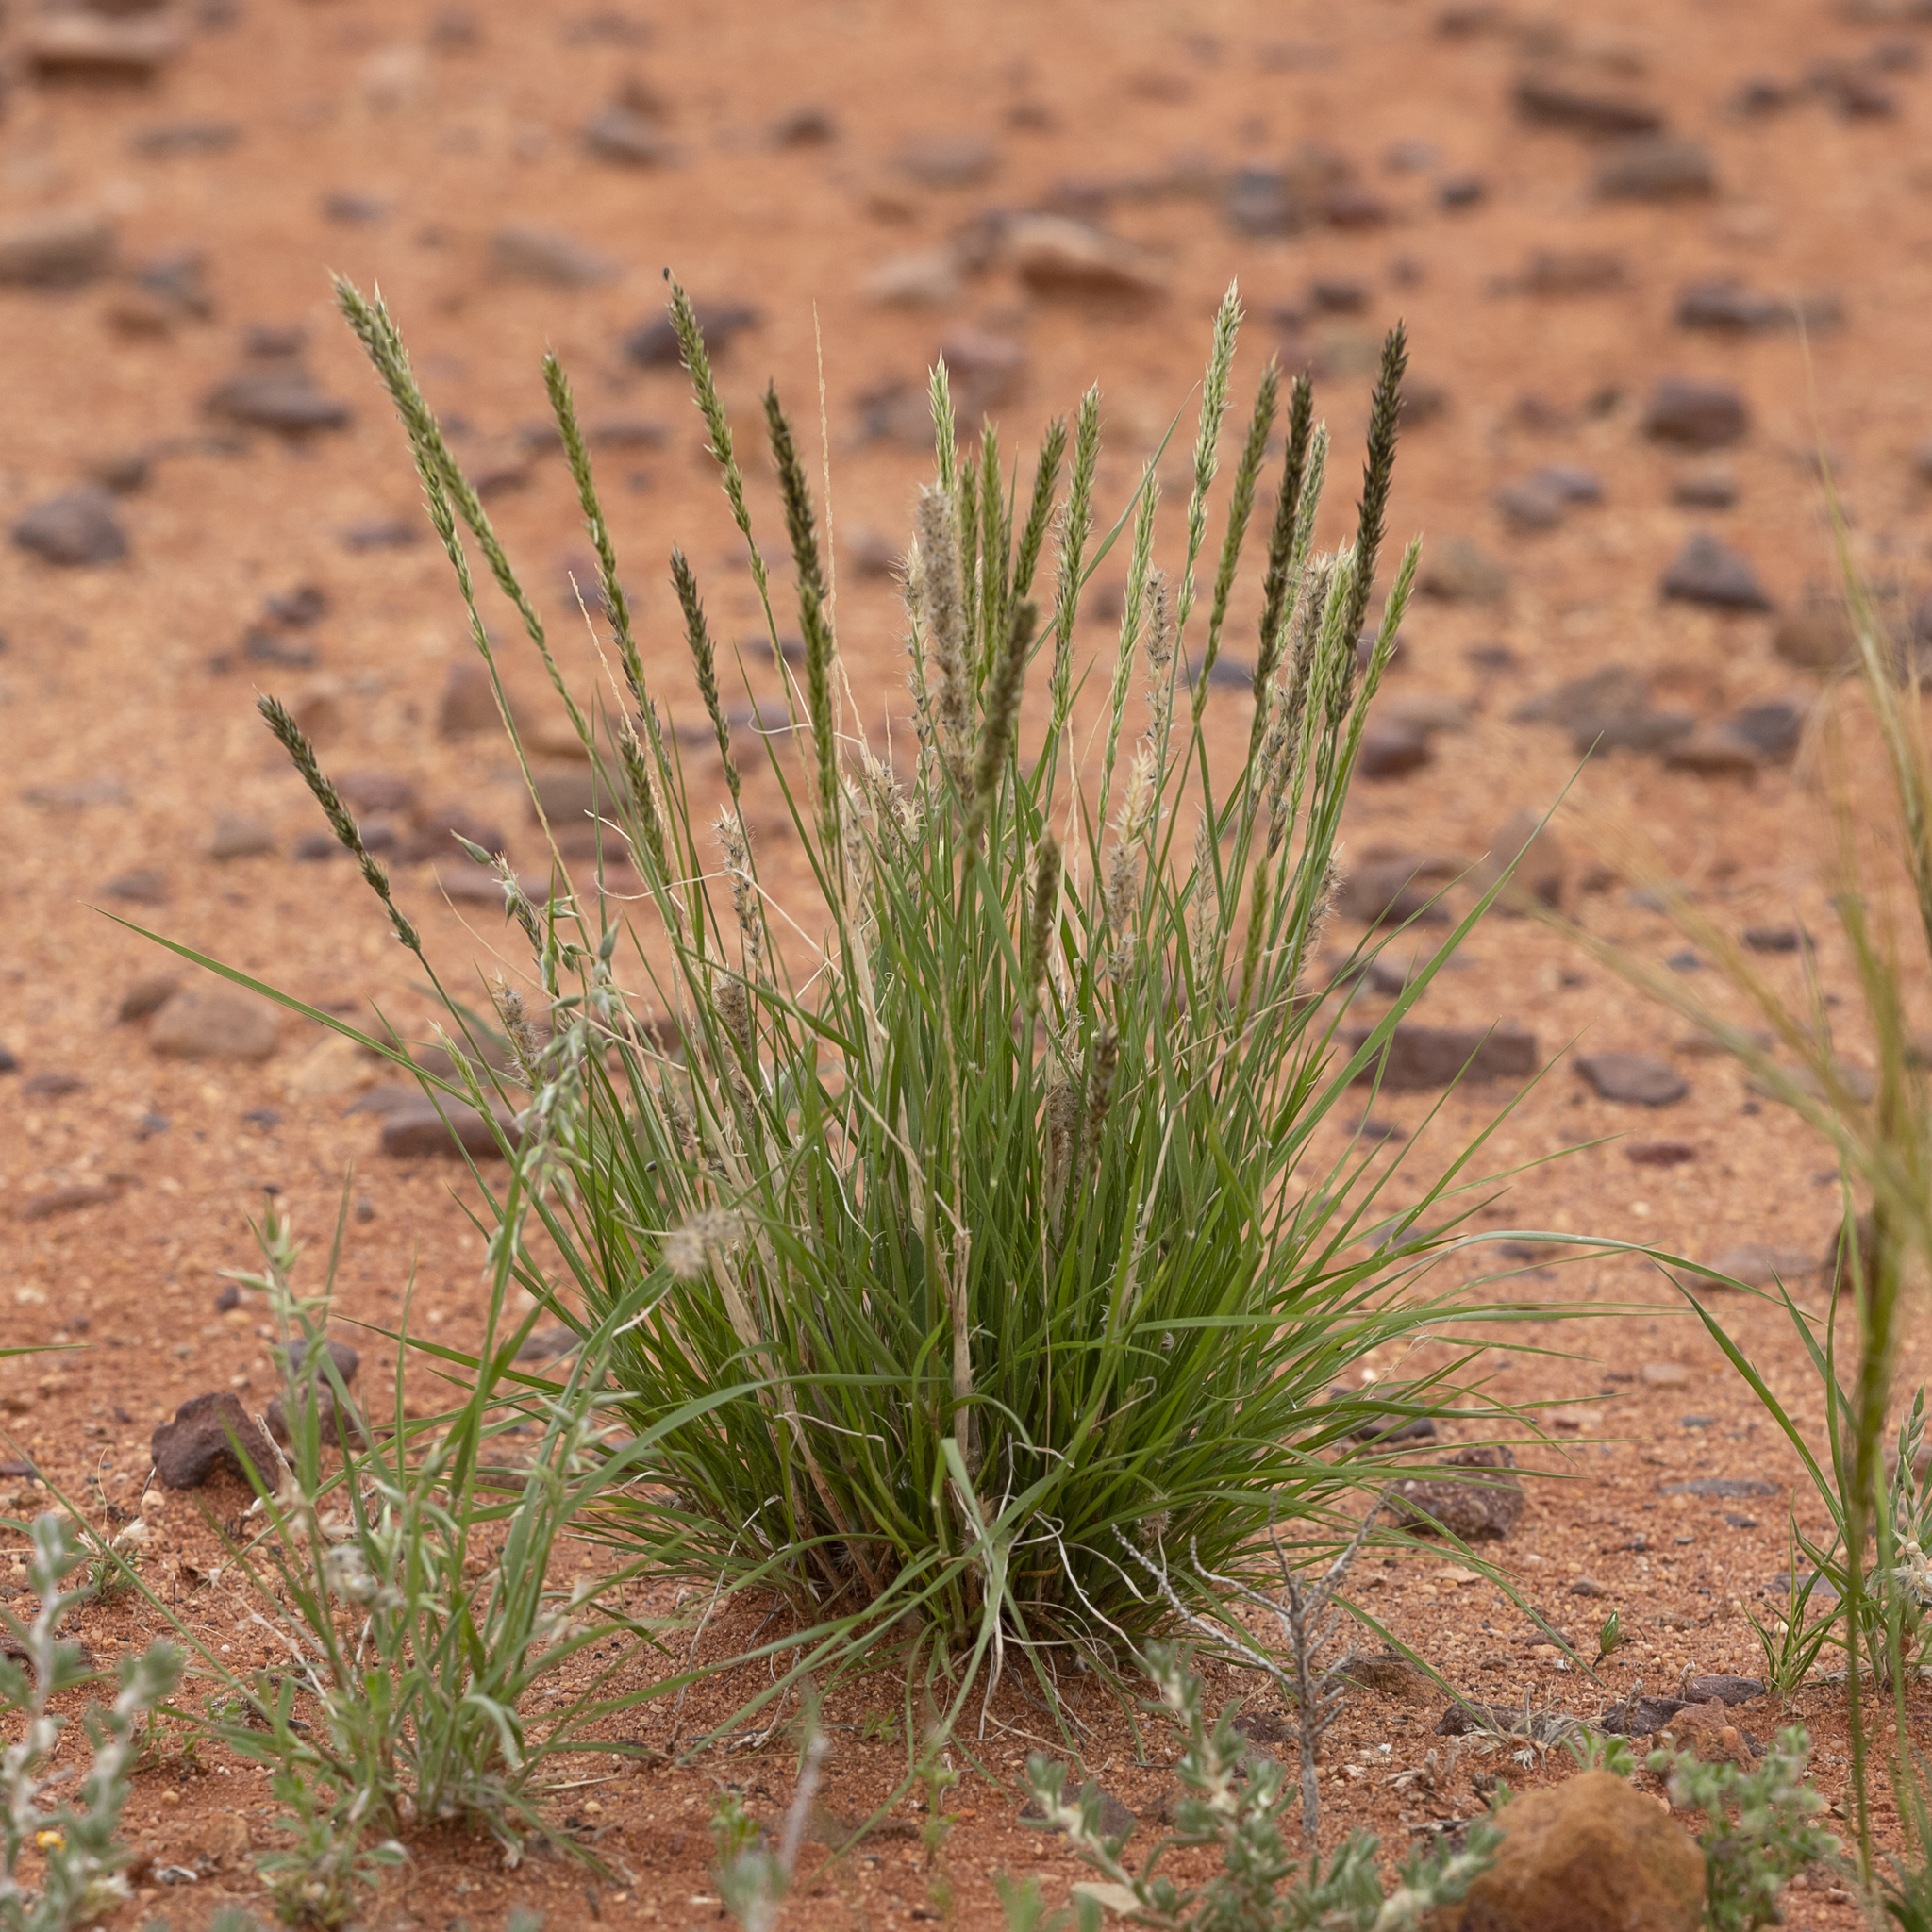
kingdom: Plantae
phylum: Tracheophyta
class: Liliopsida
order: Poales
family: Poaceae
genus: Enneapogon
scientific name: Enneapogon cylindricus
